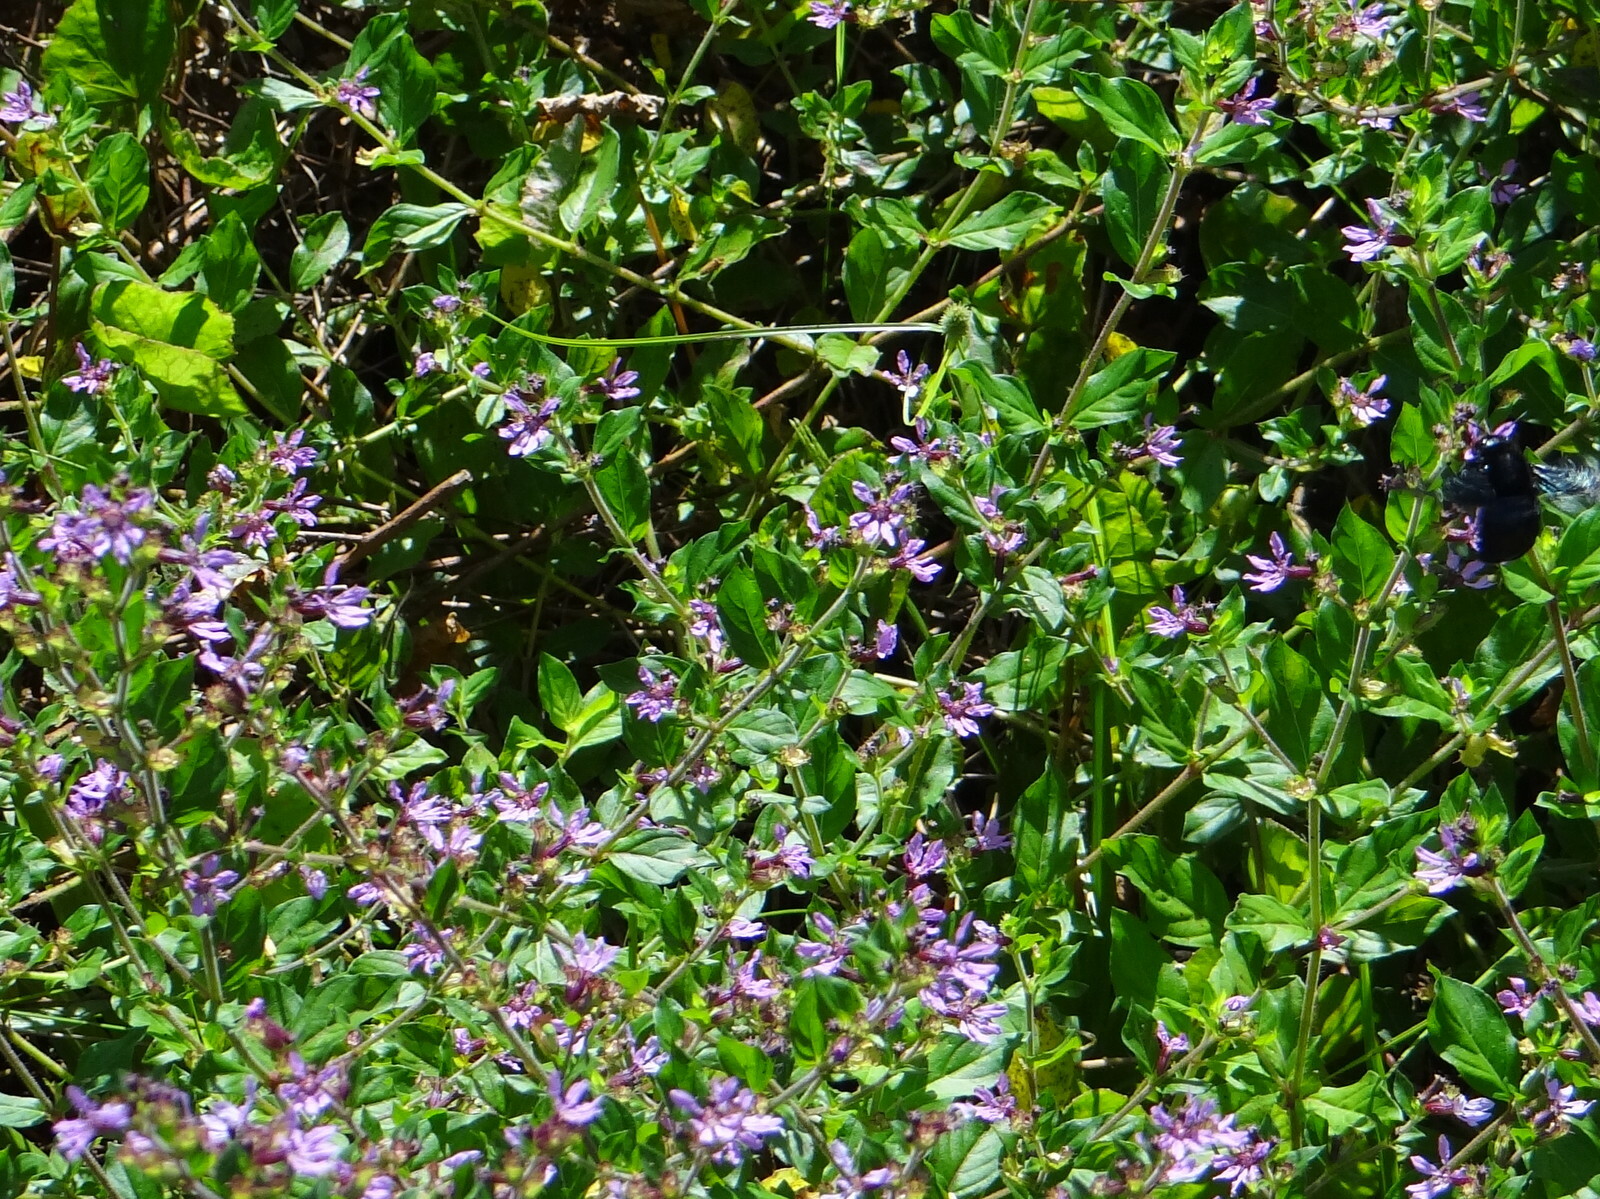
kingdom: Plantae
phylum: Tracheophyta
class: Magnoliopsida
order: Myrtales
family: Lythraceae
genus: Cuphea
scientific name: Cuphea carthagenensis
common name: Colombian waxweed
